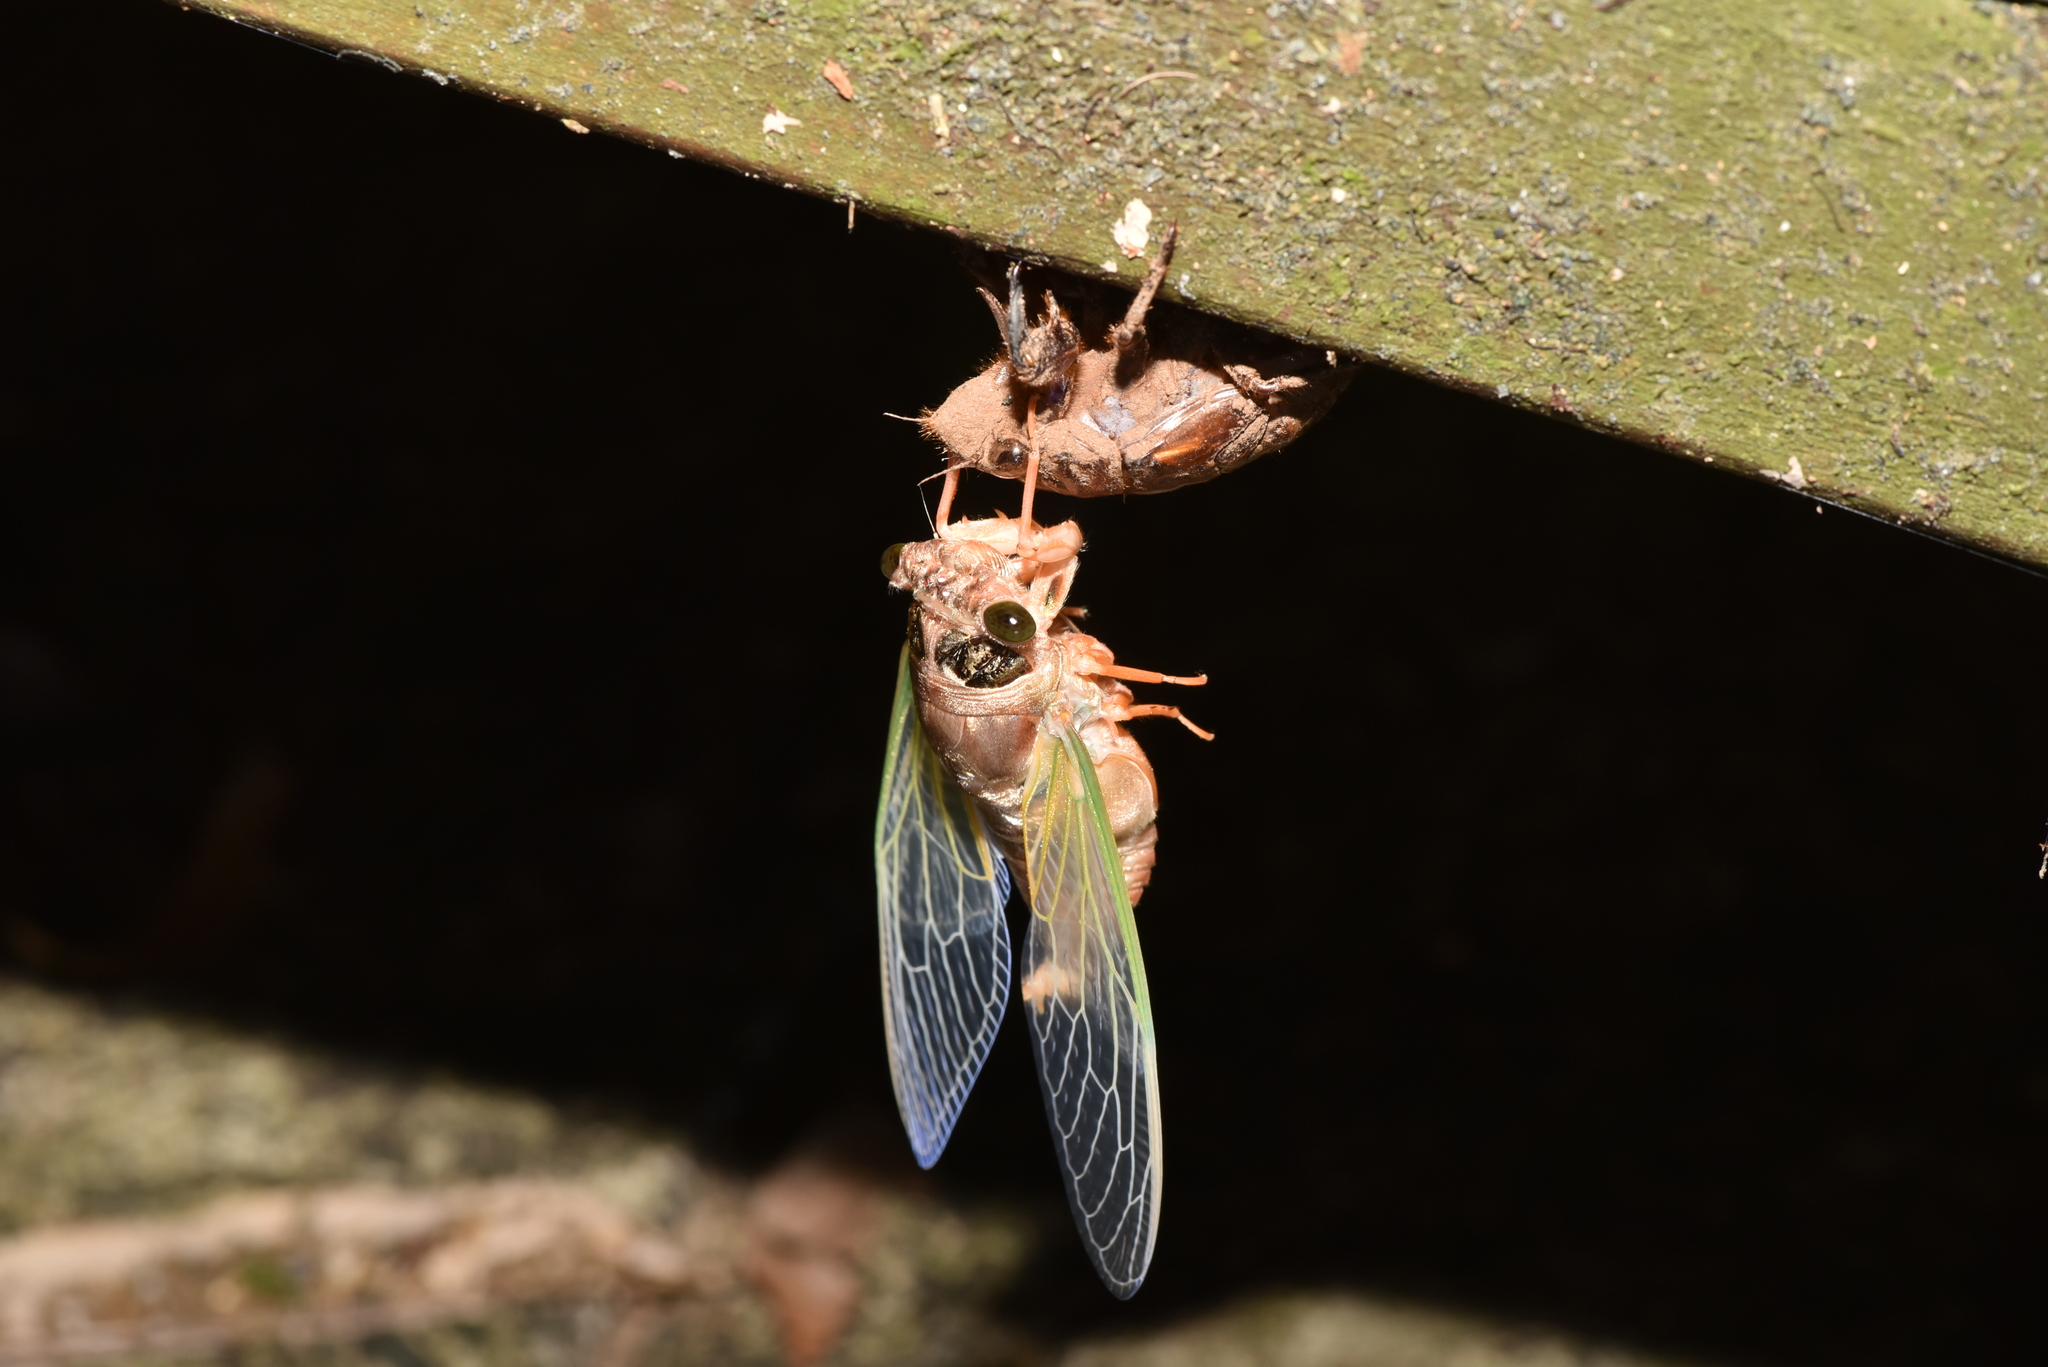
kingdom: Animalia
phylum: Arthropoda
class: Insecta
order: Hemiptera
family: Cicadidae
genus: Cryptotympana
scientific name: Cryptotympana takasagona
